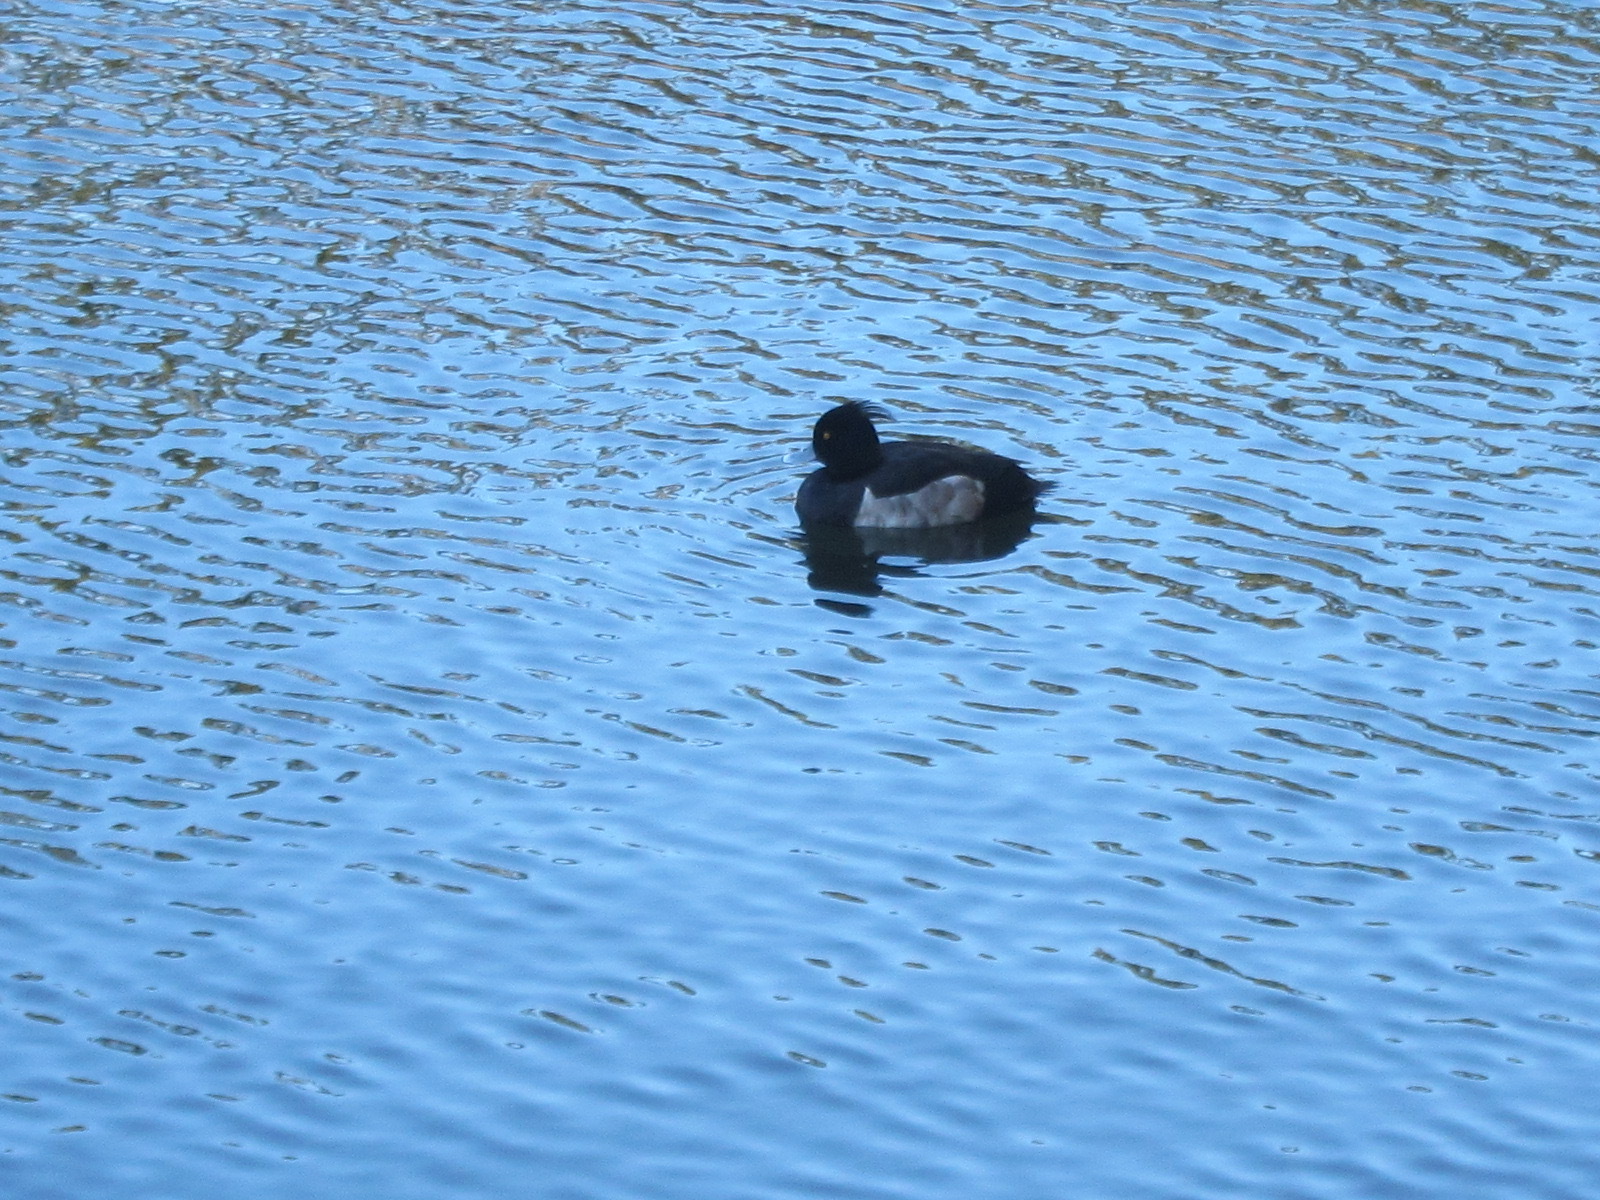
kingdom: Animalia
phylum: Chordata
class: Aves
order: Anseriformes
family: Anatidae
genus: Aythya
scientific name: Aythya fuligula
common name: Tufted duck
